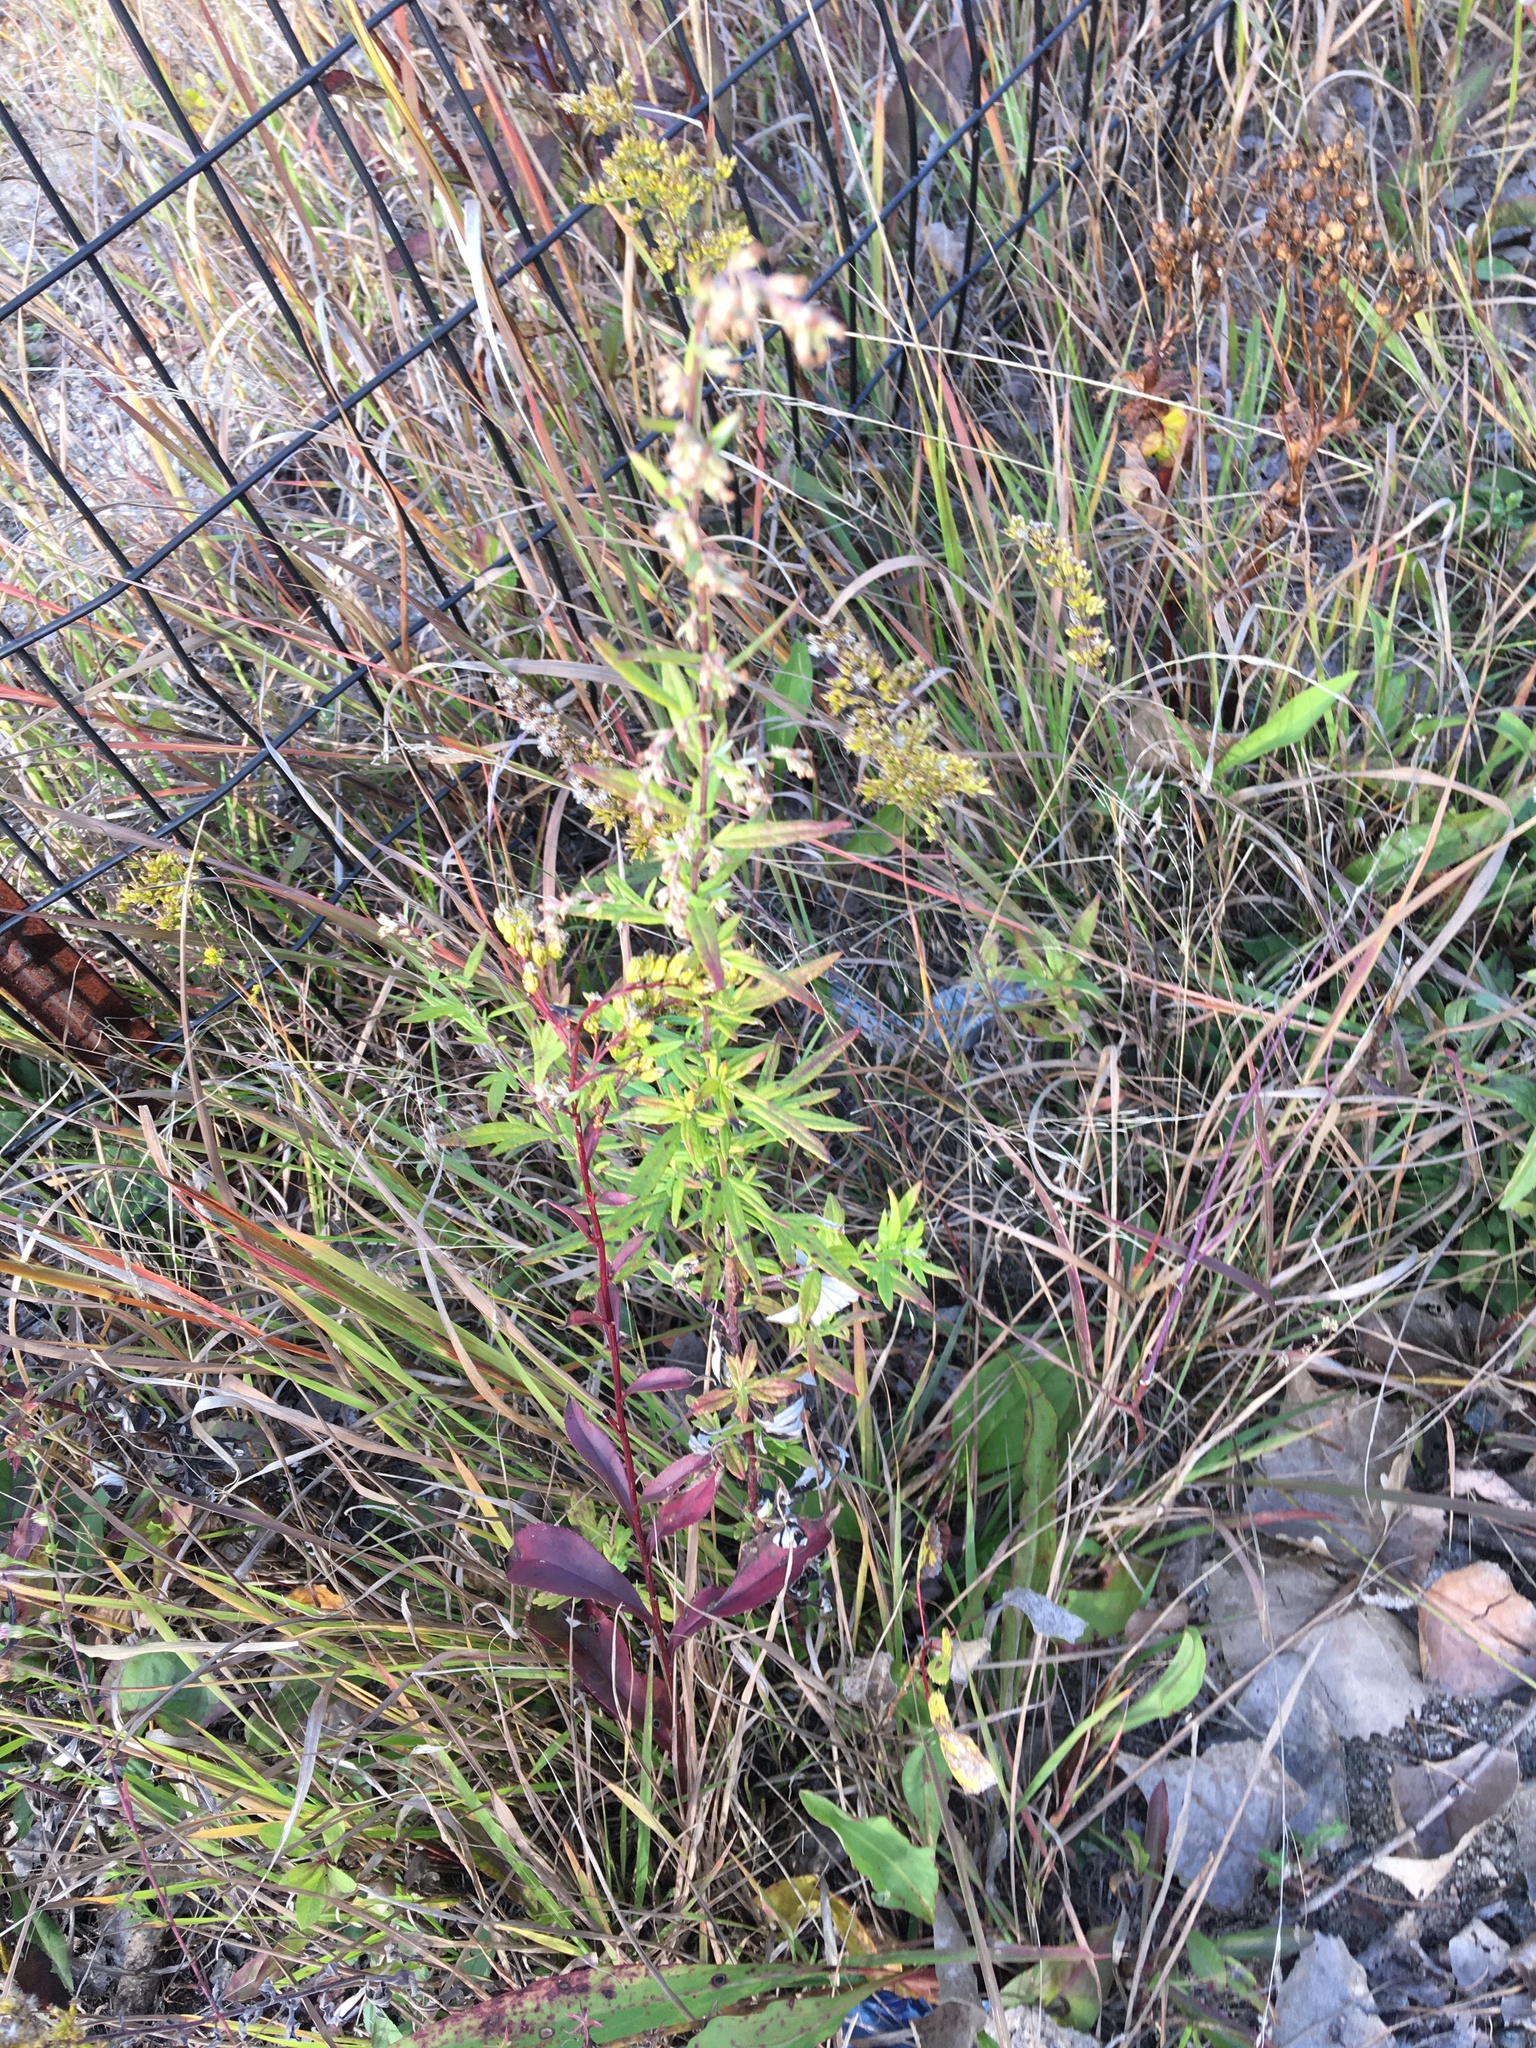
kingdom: Plantae
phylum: Tracheophyta
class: Magnoliopsida
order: Asterales
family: Asteraceae
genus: Artemisia
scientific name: Artemisia vulgaris
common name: Mugwort
